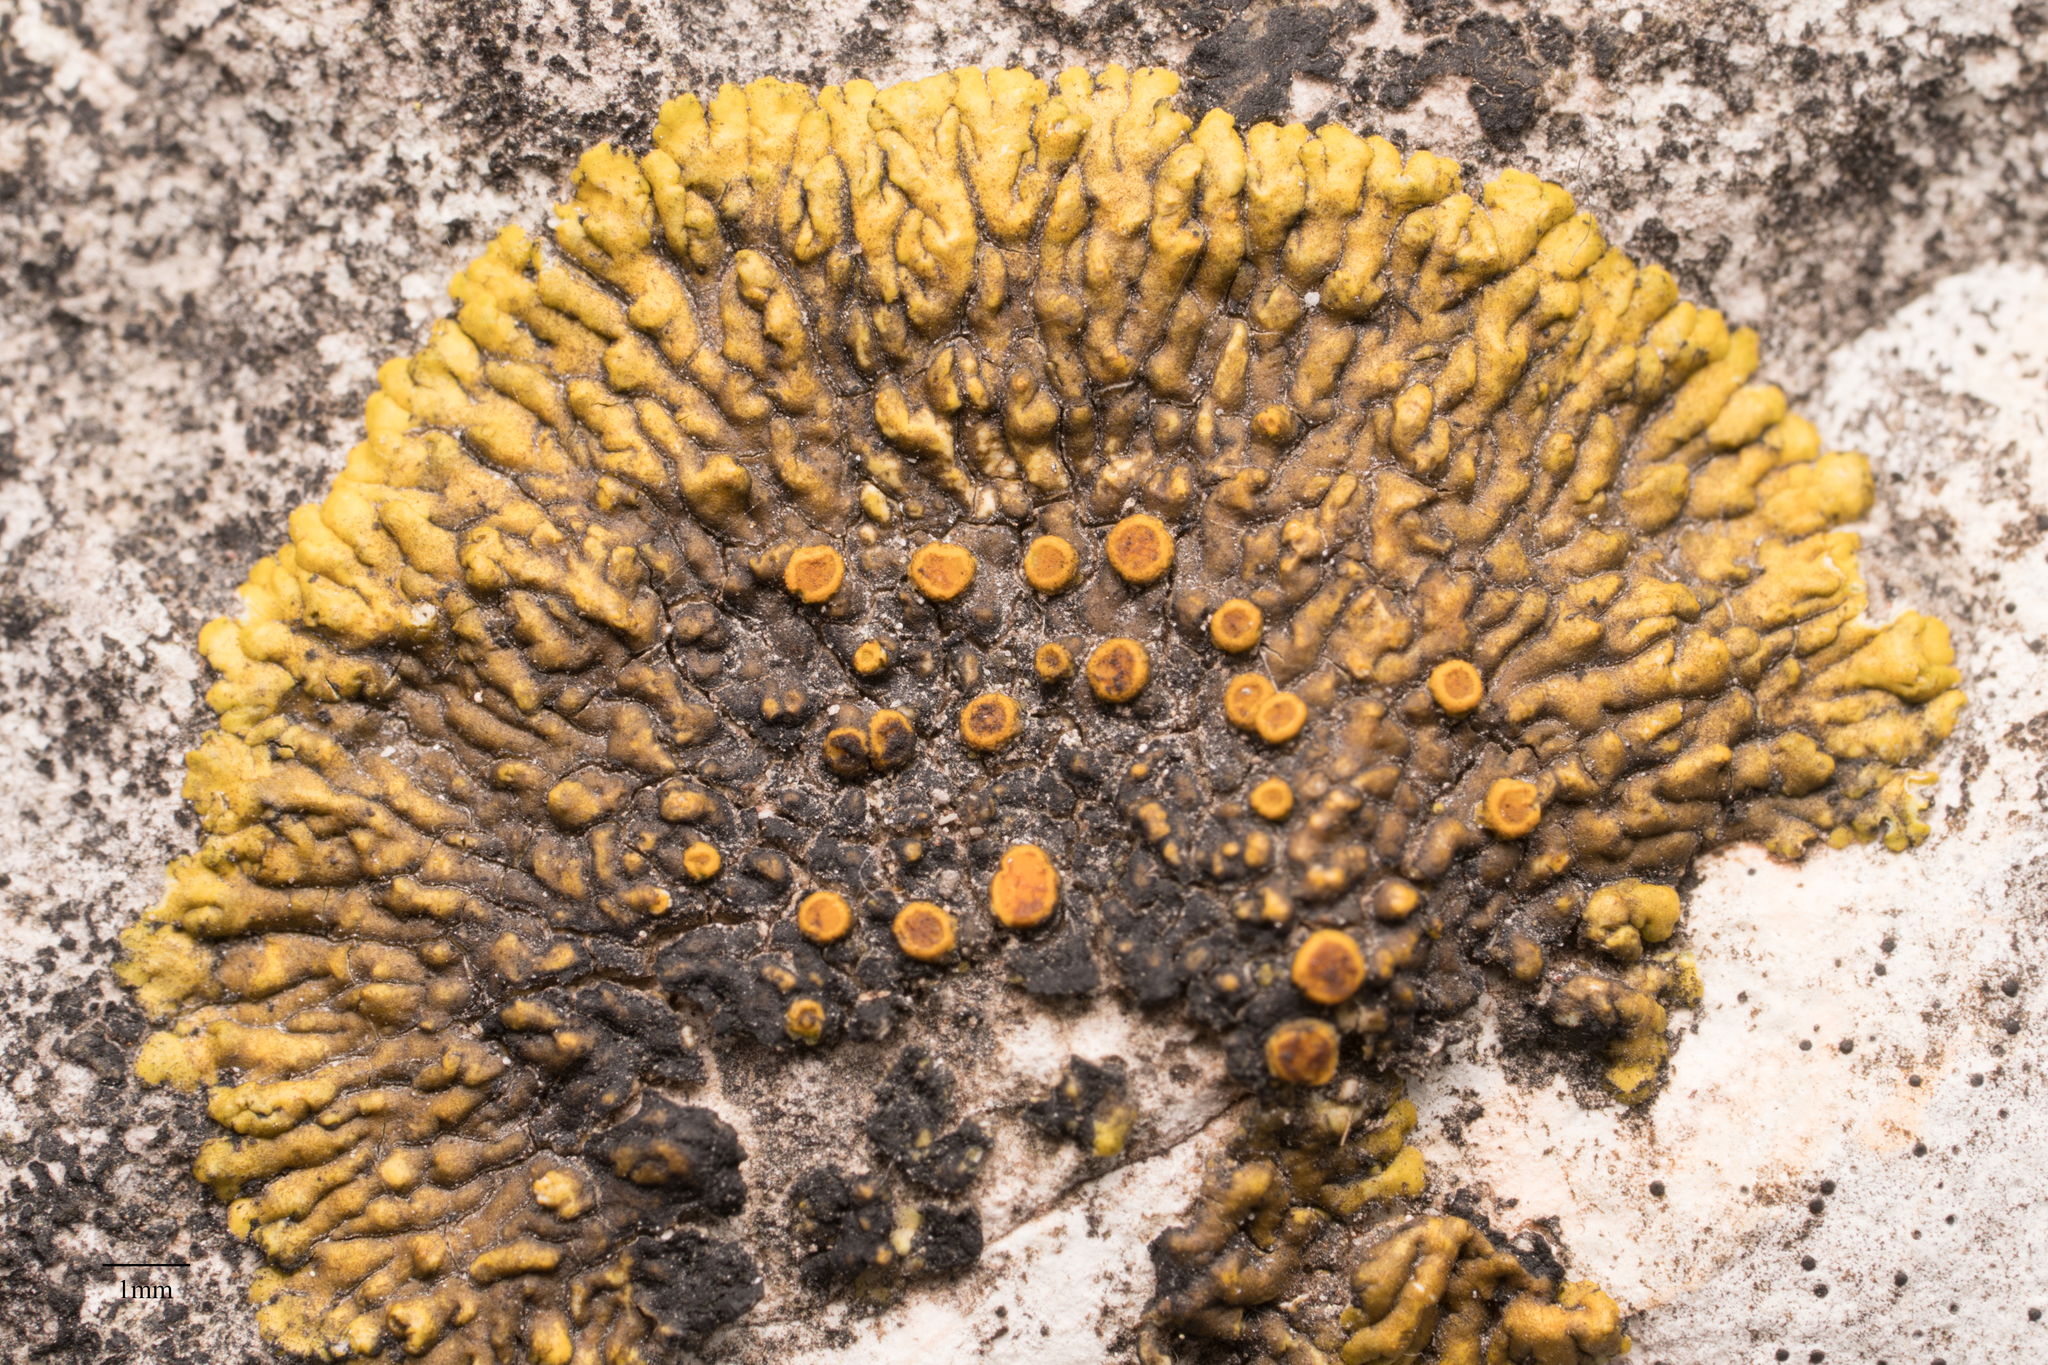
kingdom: Fungi
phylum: Ascomycota
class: Lecanoromycetes
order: Teloschistales
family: Teloschistaceae
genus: Variospora
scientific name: Variospora flavescens
